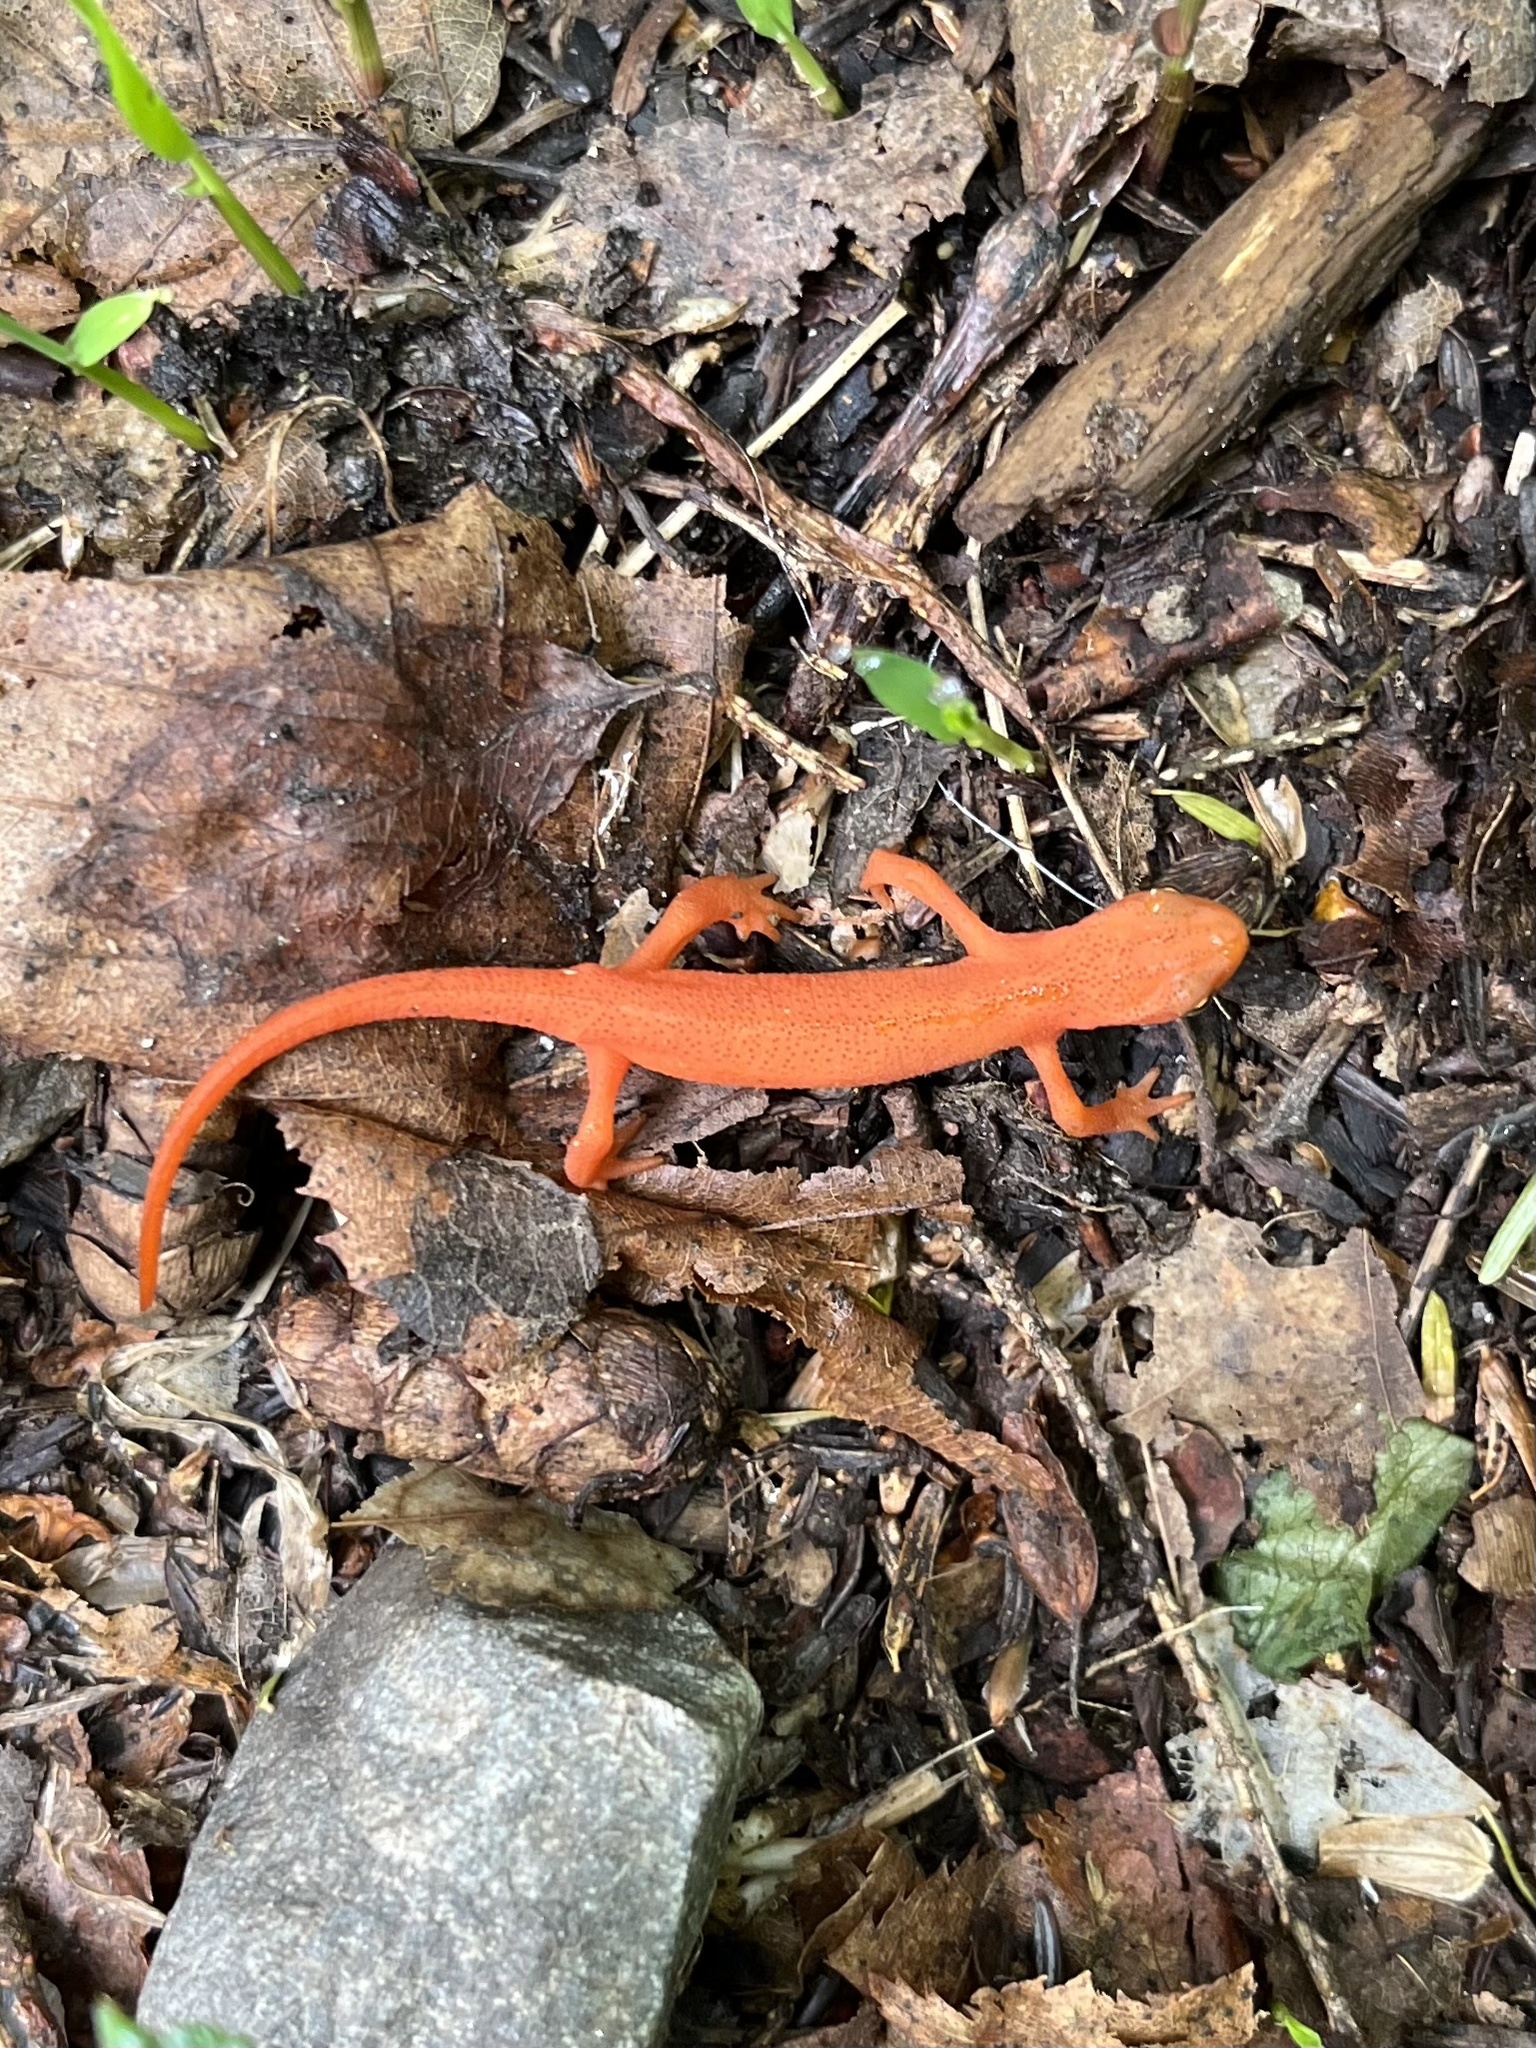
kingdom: Animalia
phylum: Chordata
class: Amphibia
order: Caudata
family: Salamandridae
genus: Notophthalmus
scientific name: Notophthalmus viridescens
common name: Eastern newt
